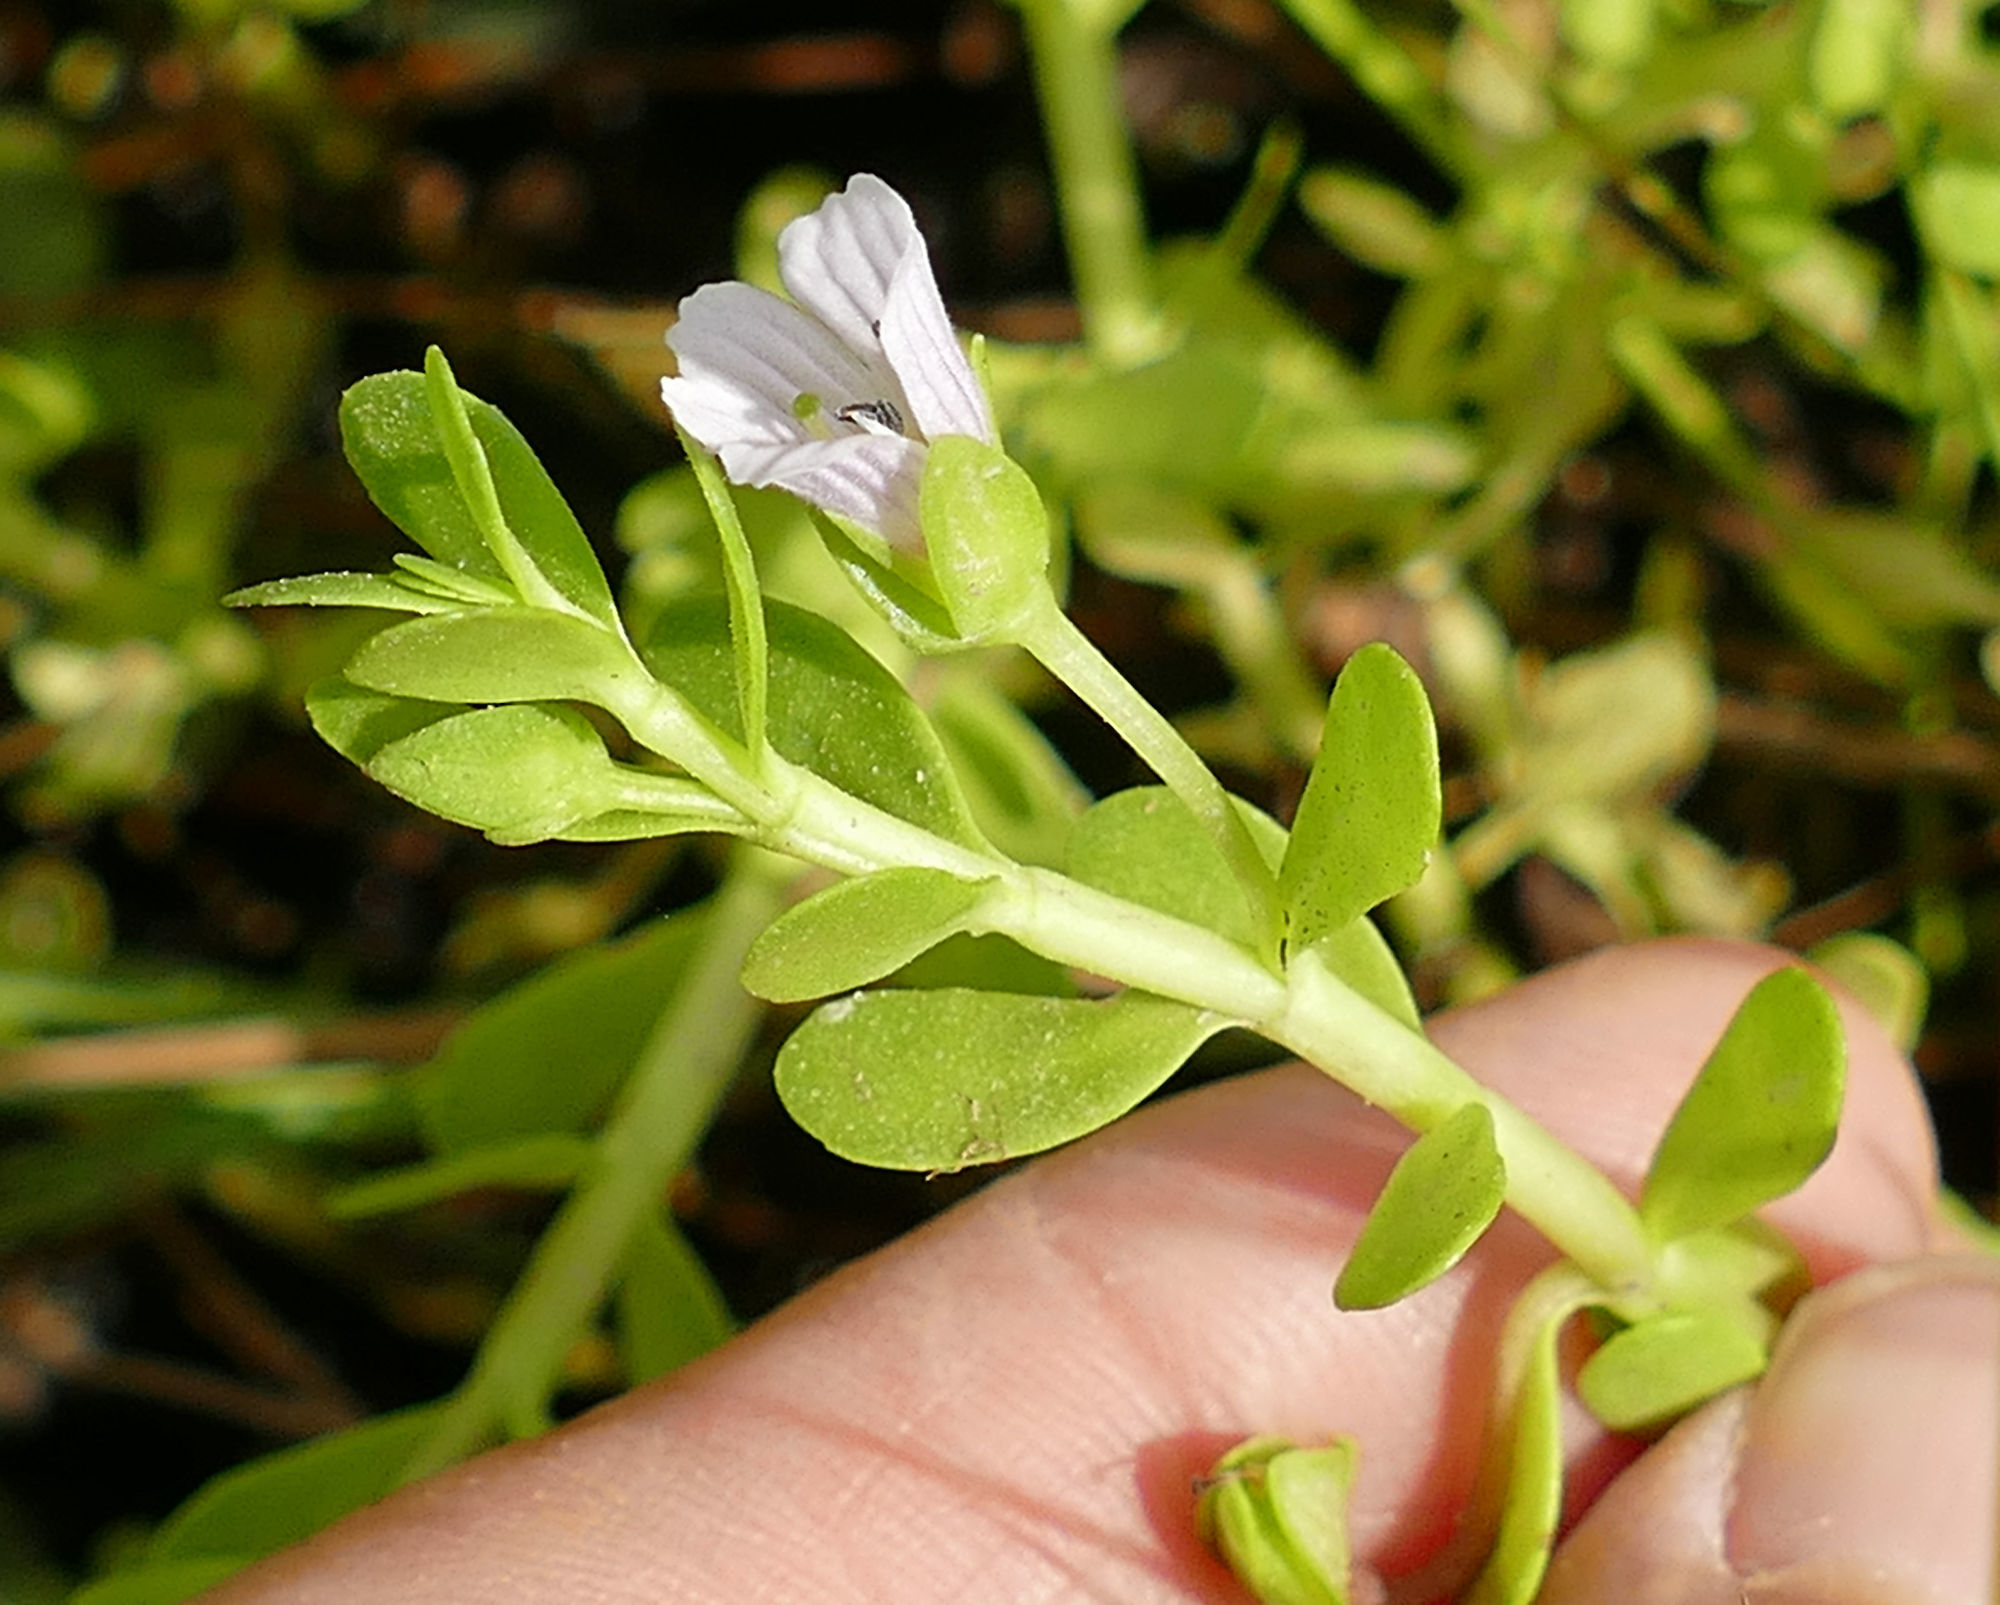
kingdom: Plantae
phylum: Tracheophyta
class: Magnoliopsida
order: Lamiales
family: Plantaginaceae
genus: Bacopa
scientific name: Bacopa monnieri
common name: Indian-pennywort
